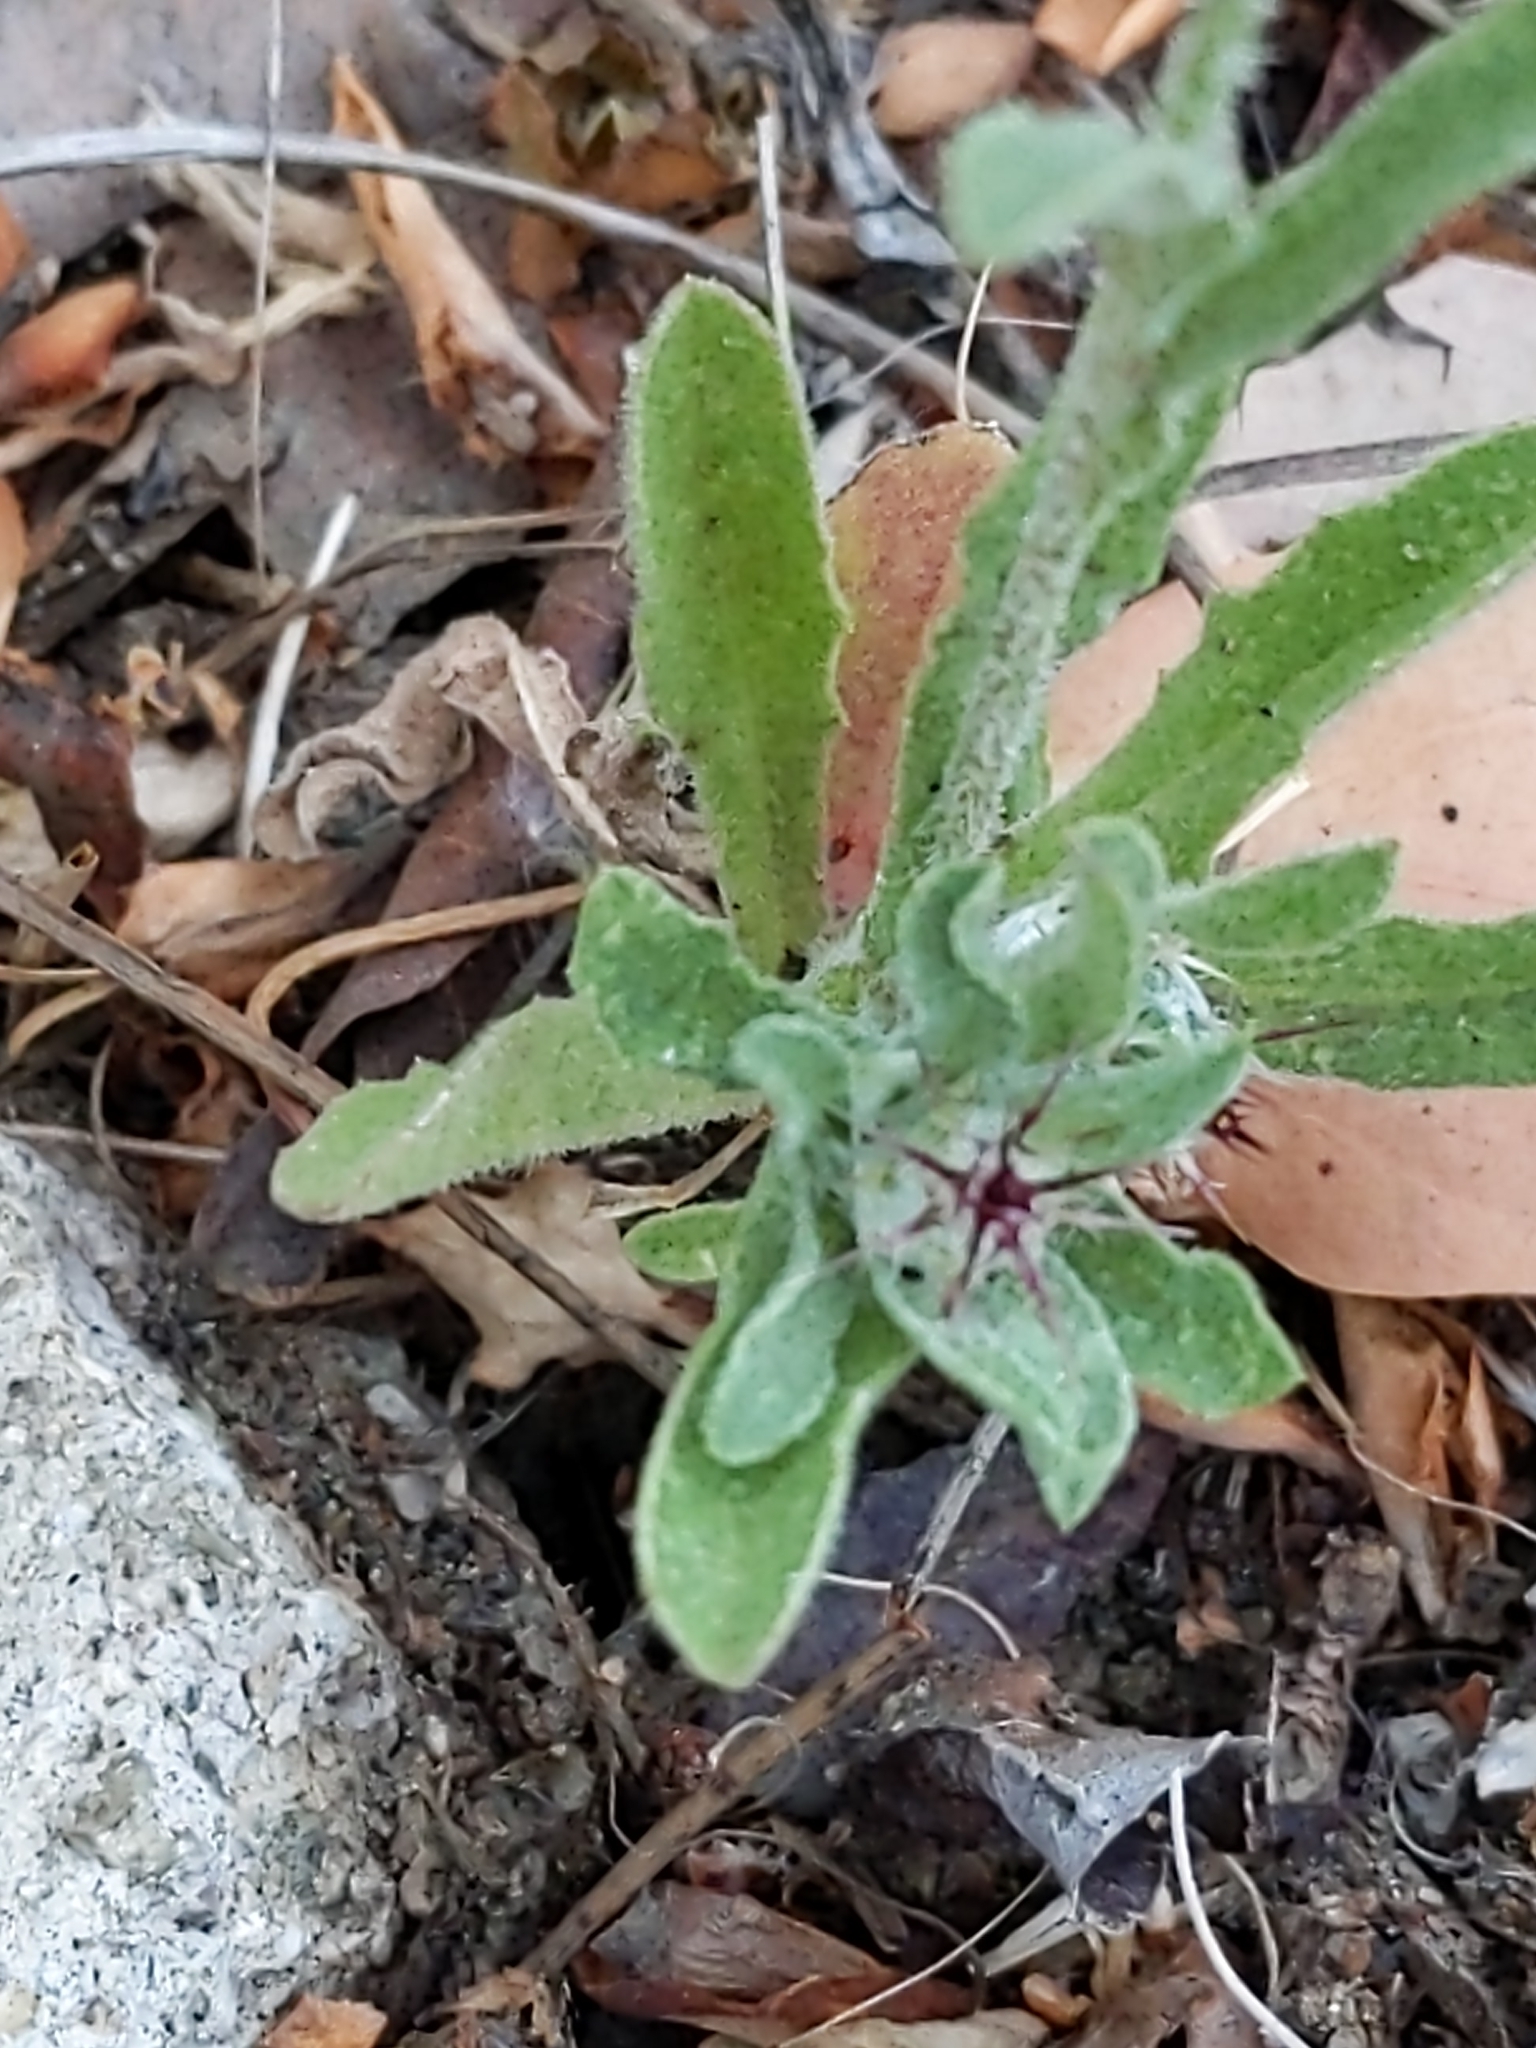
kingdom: Plantae
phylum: Tracheophyta
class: Magnoliopsida
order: Asterales
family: Asteraceae
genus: Centaurea
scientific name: Centaurea melitensis
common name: Maltese star-thistle
